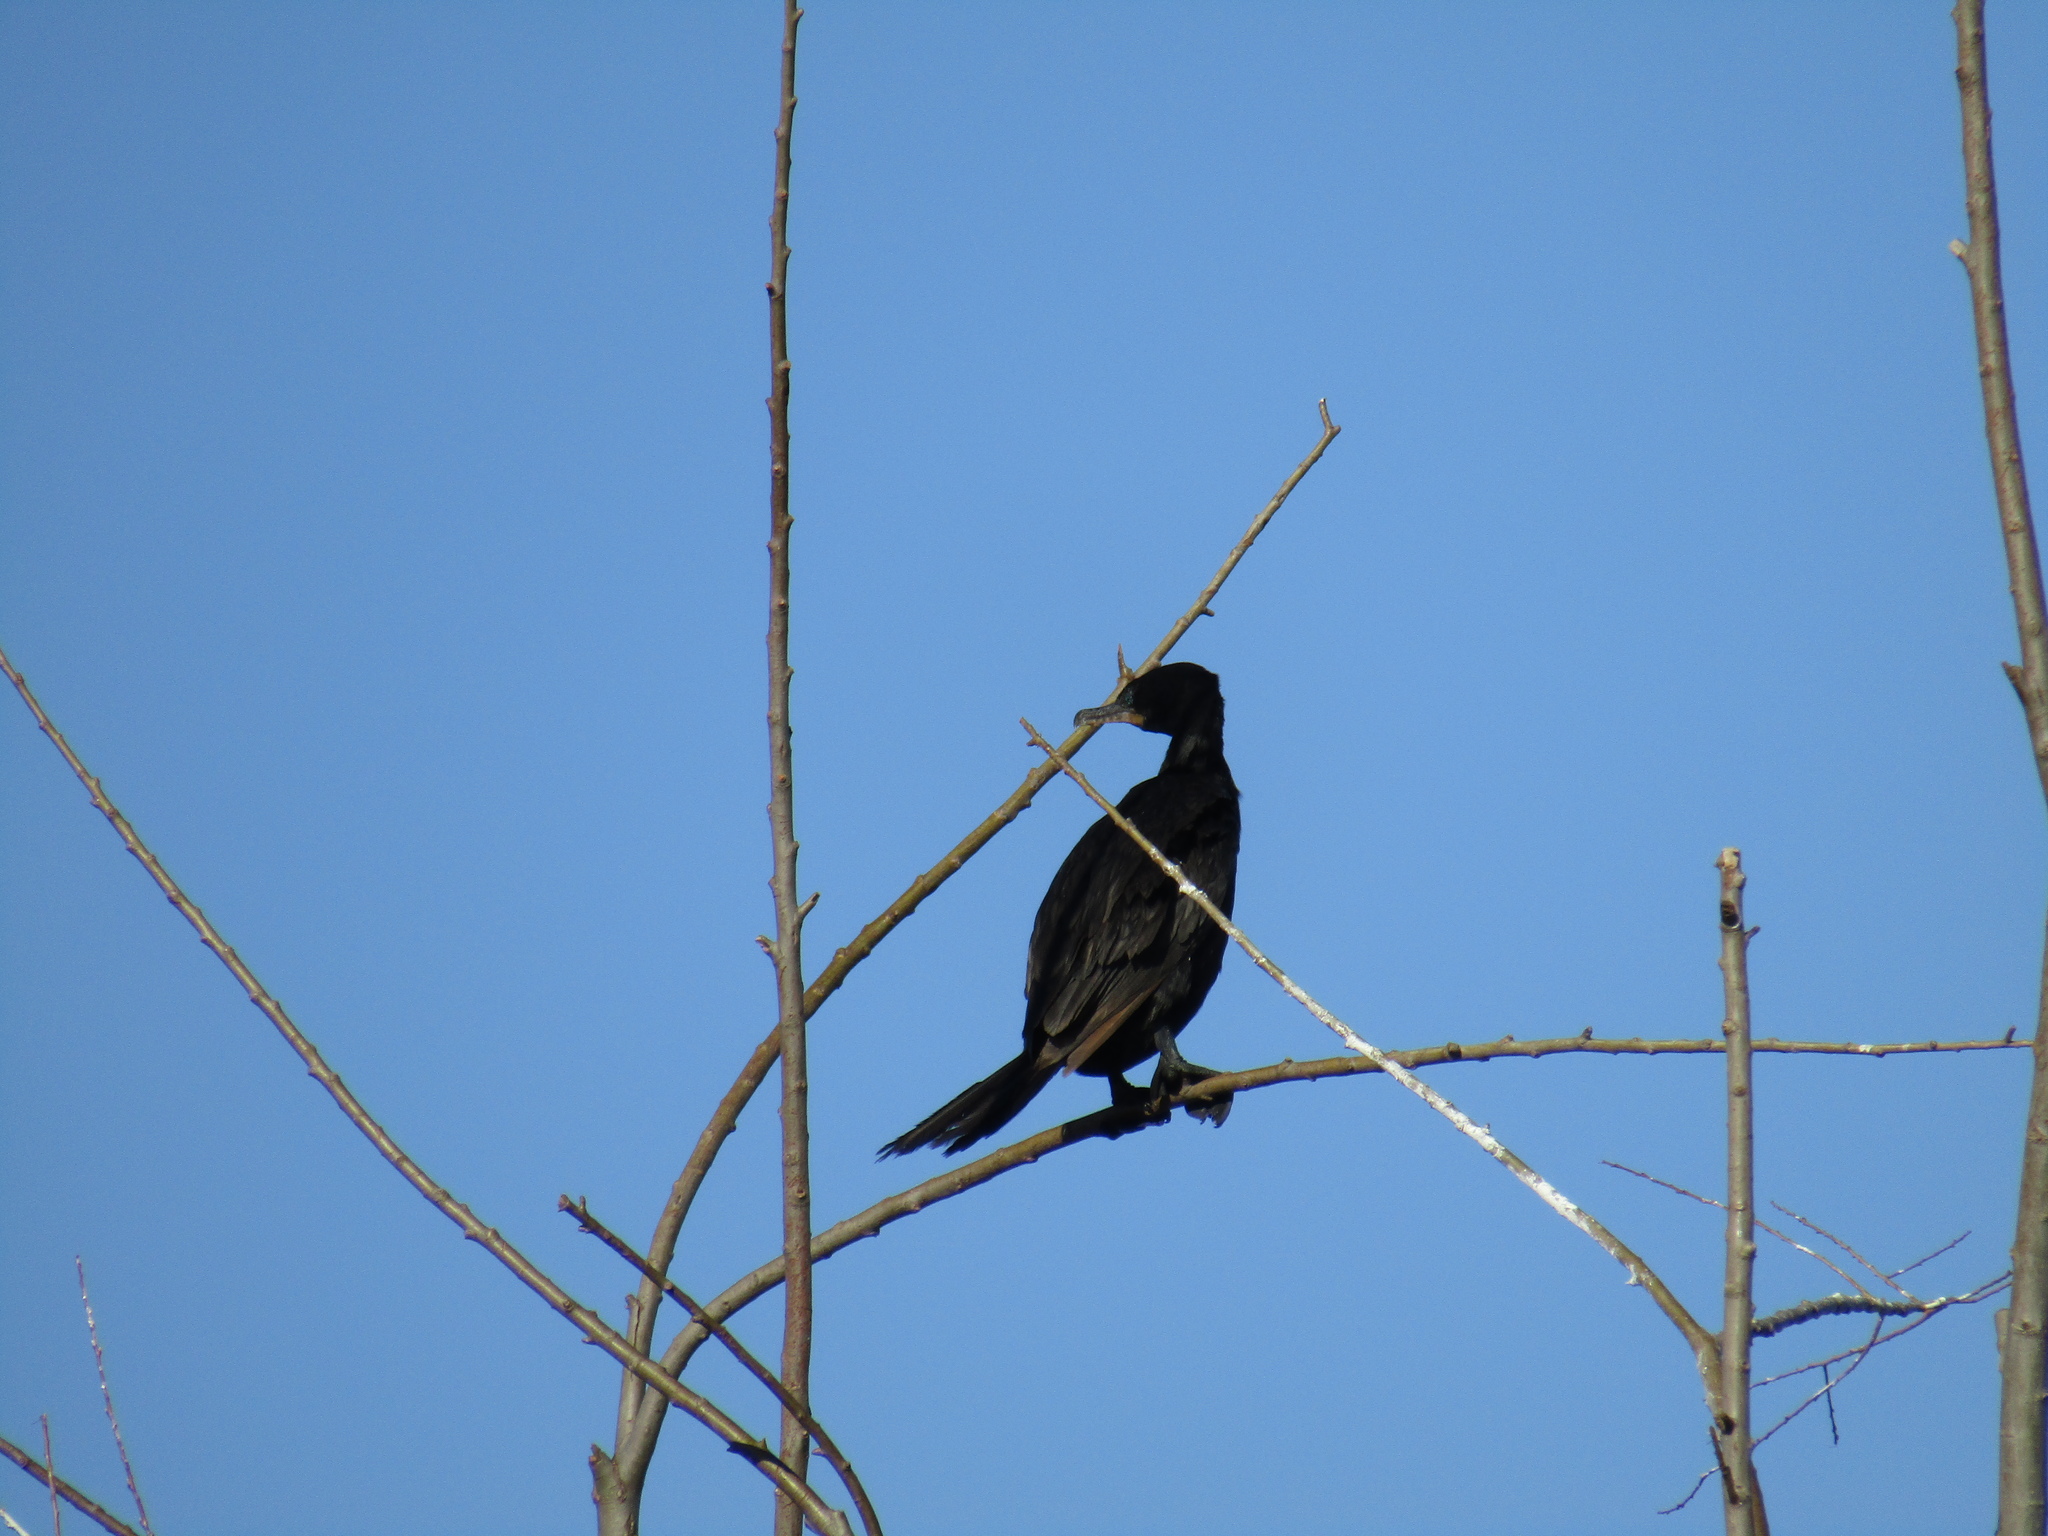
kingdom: Animalia
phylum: Chordata
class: Aves
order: Suliformes
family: Phalacrocoracidae
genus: Phalacrocorax
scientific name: Phalacrocorax brasilianus
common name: Neotropic cormorant
